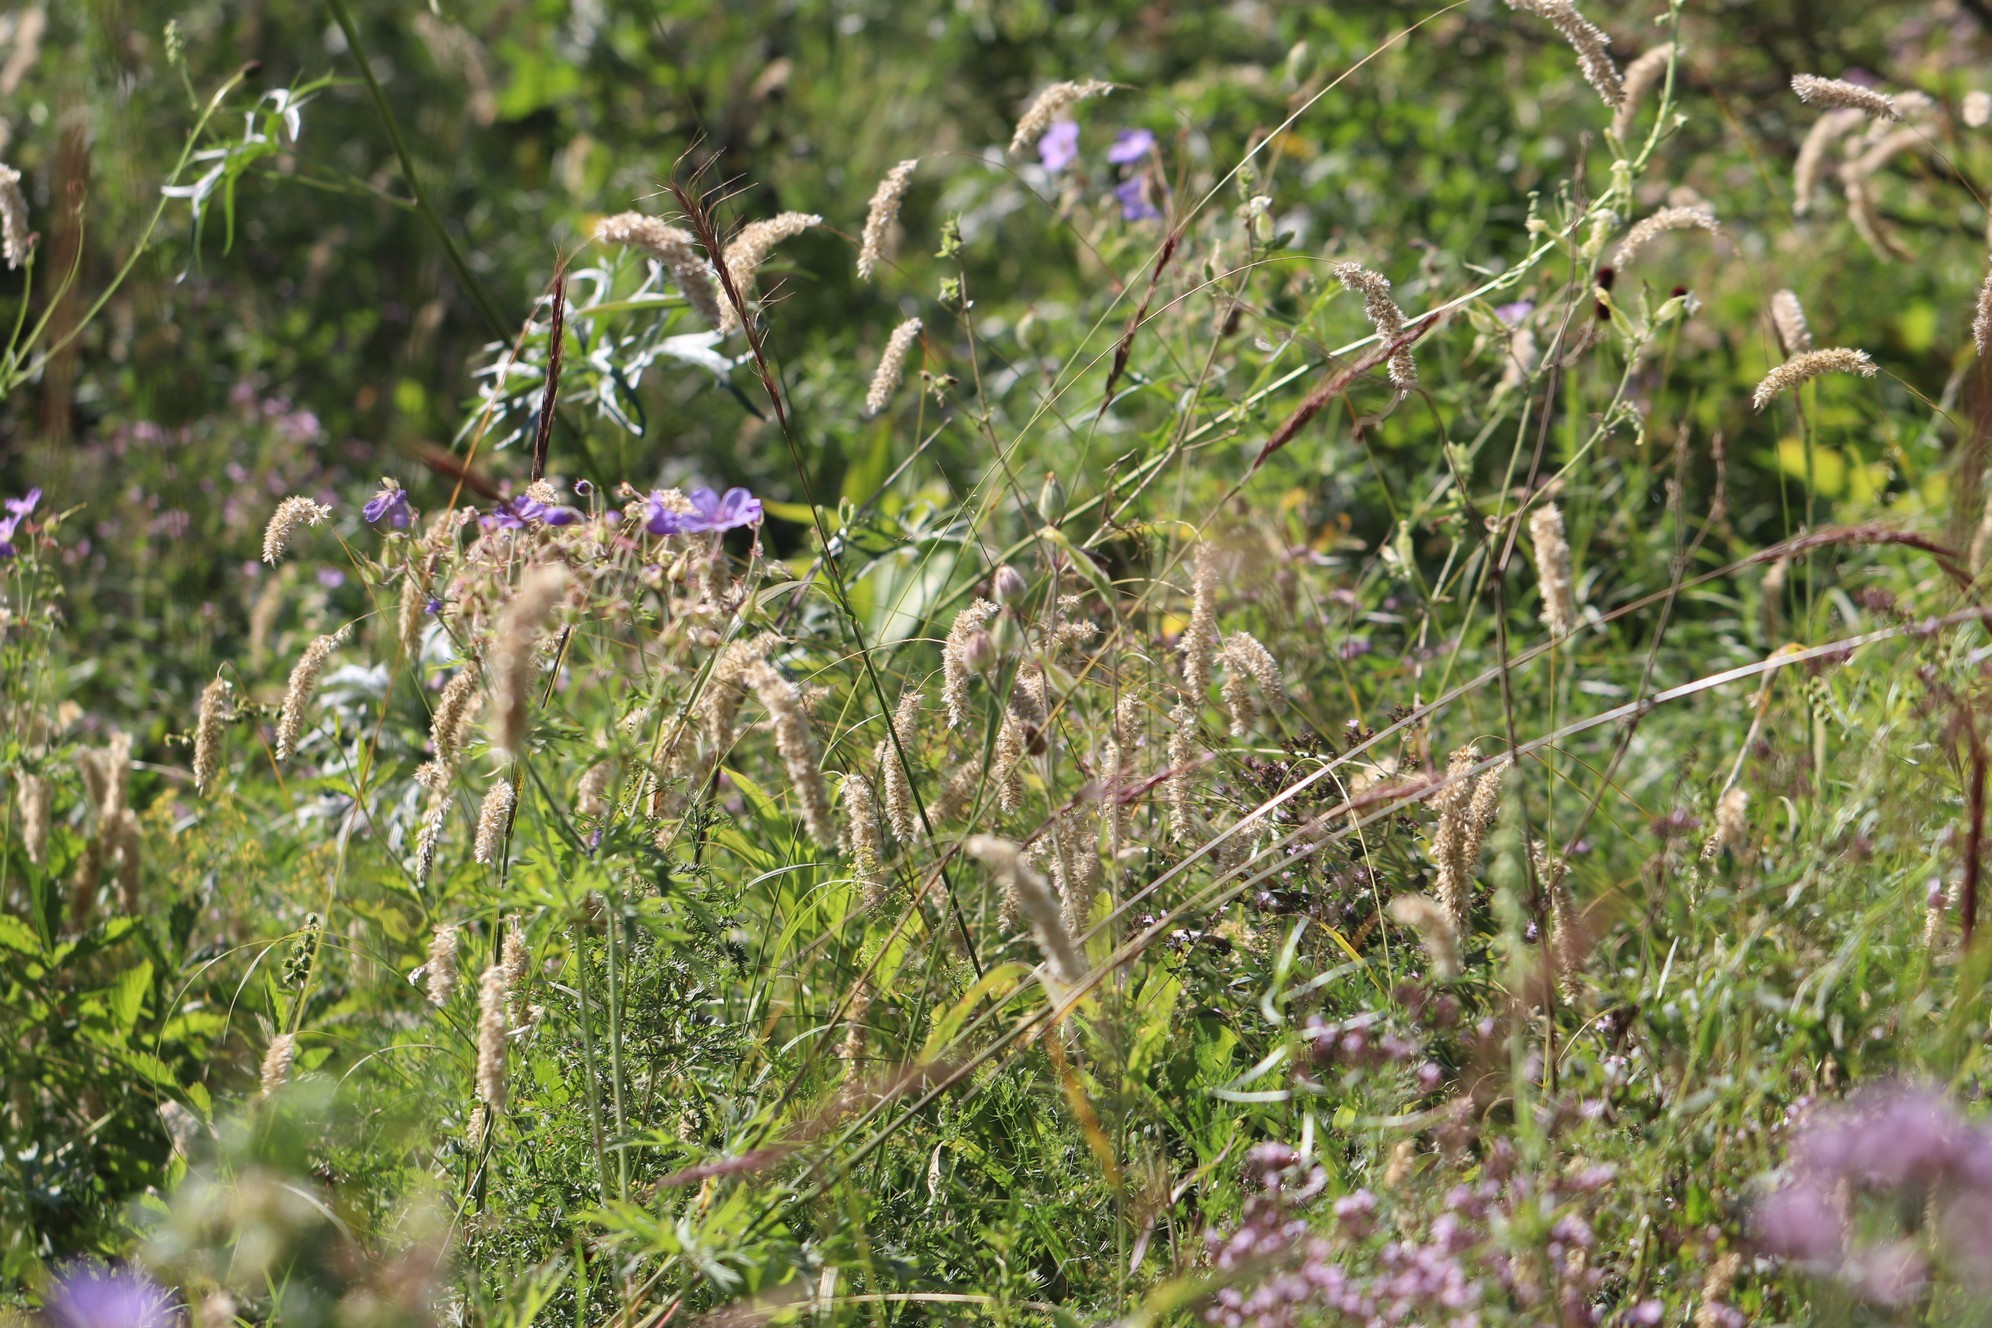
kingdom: Plantae
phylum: Tracheophyta
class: Liliopsida
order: Poales
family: Poaceae
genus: Melica
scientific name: Melica transsilvanica
